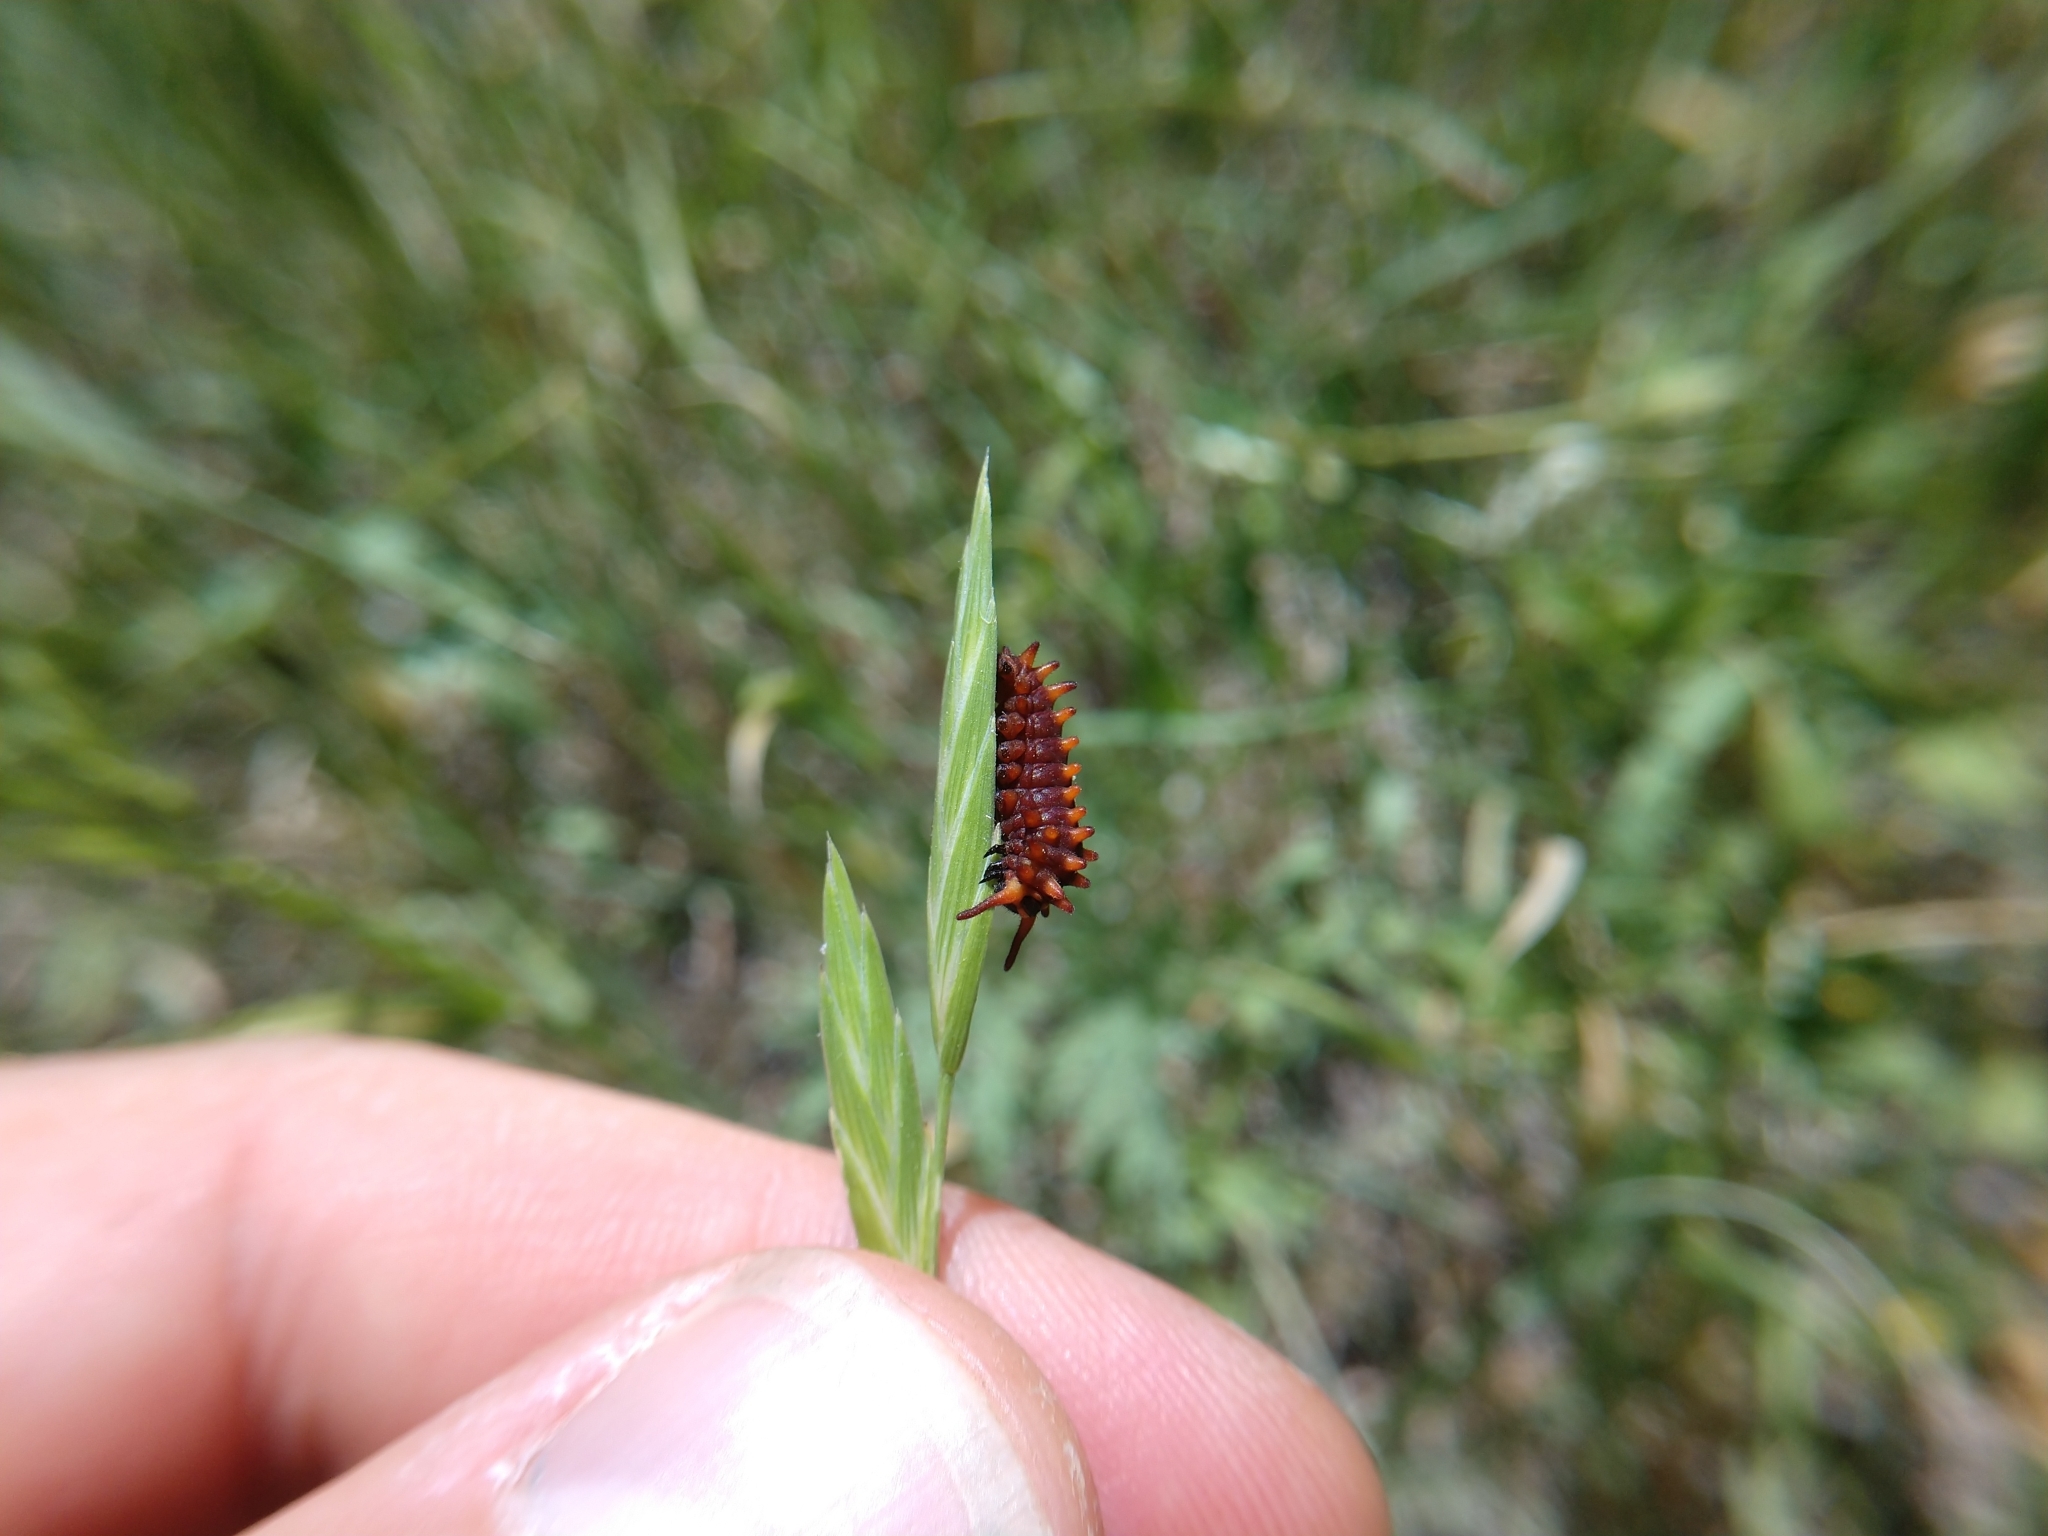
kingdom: Animalia
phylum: Arthropoda
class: Insecta
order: Lepidoptera
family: Papilionidae
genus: Battus
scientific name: Battus philenor
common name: Pipevine swallowtail
